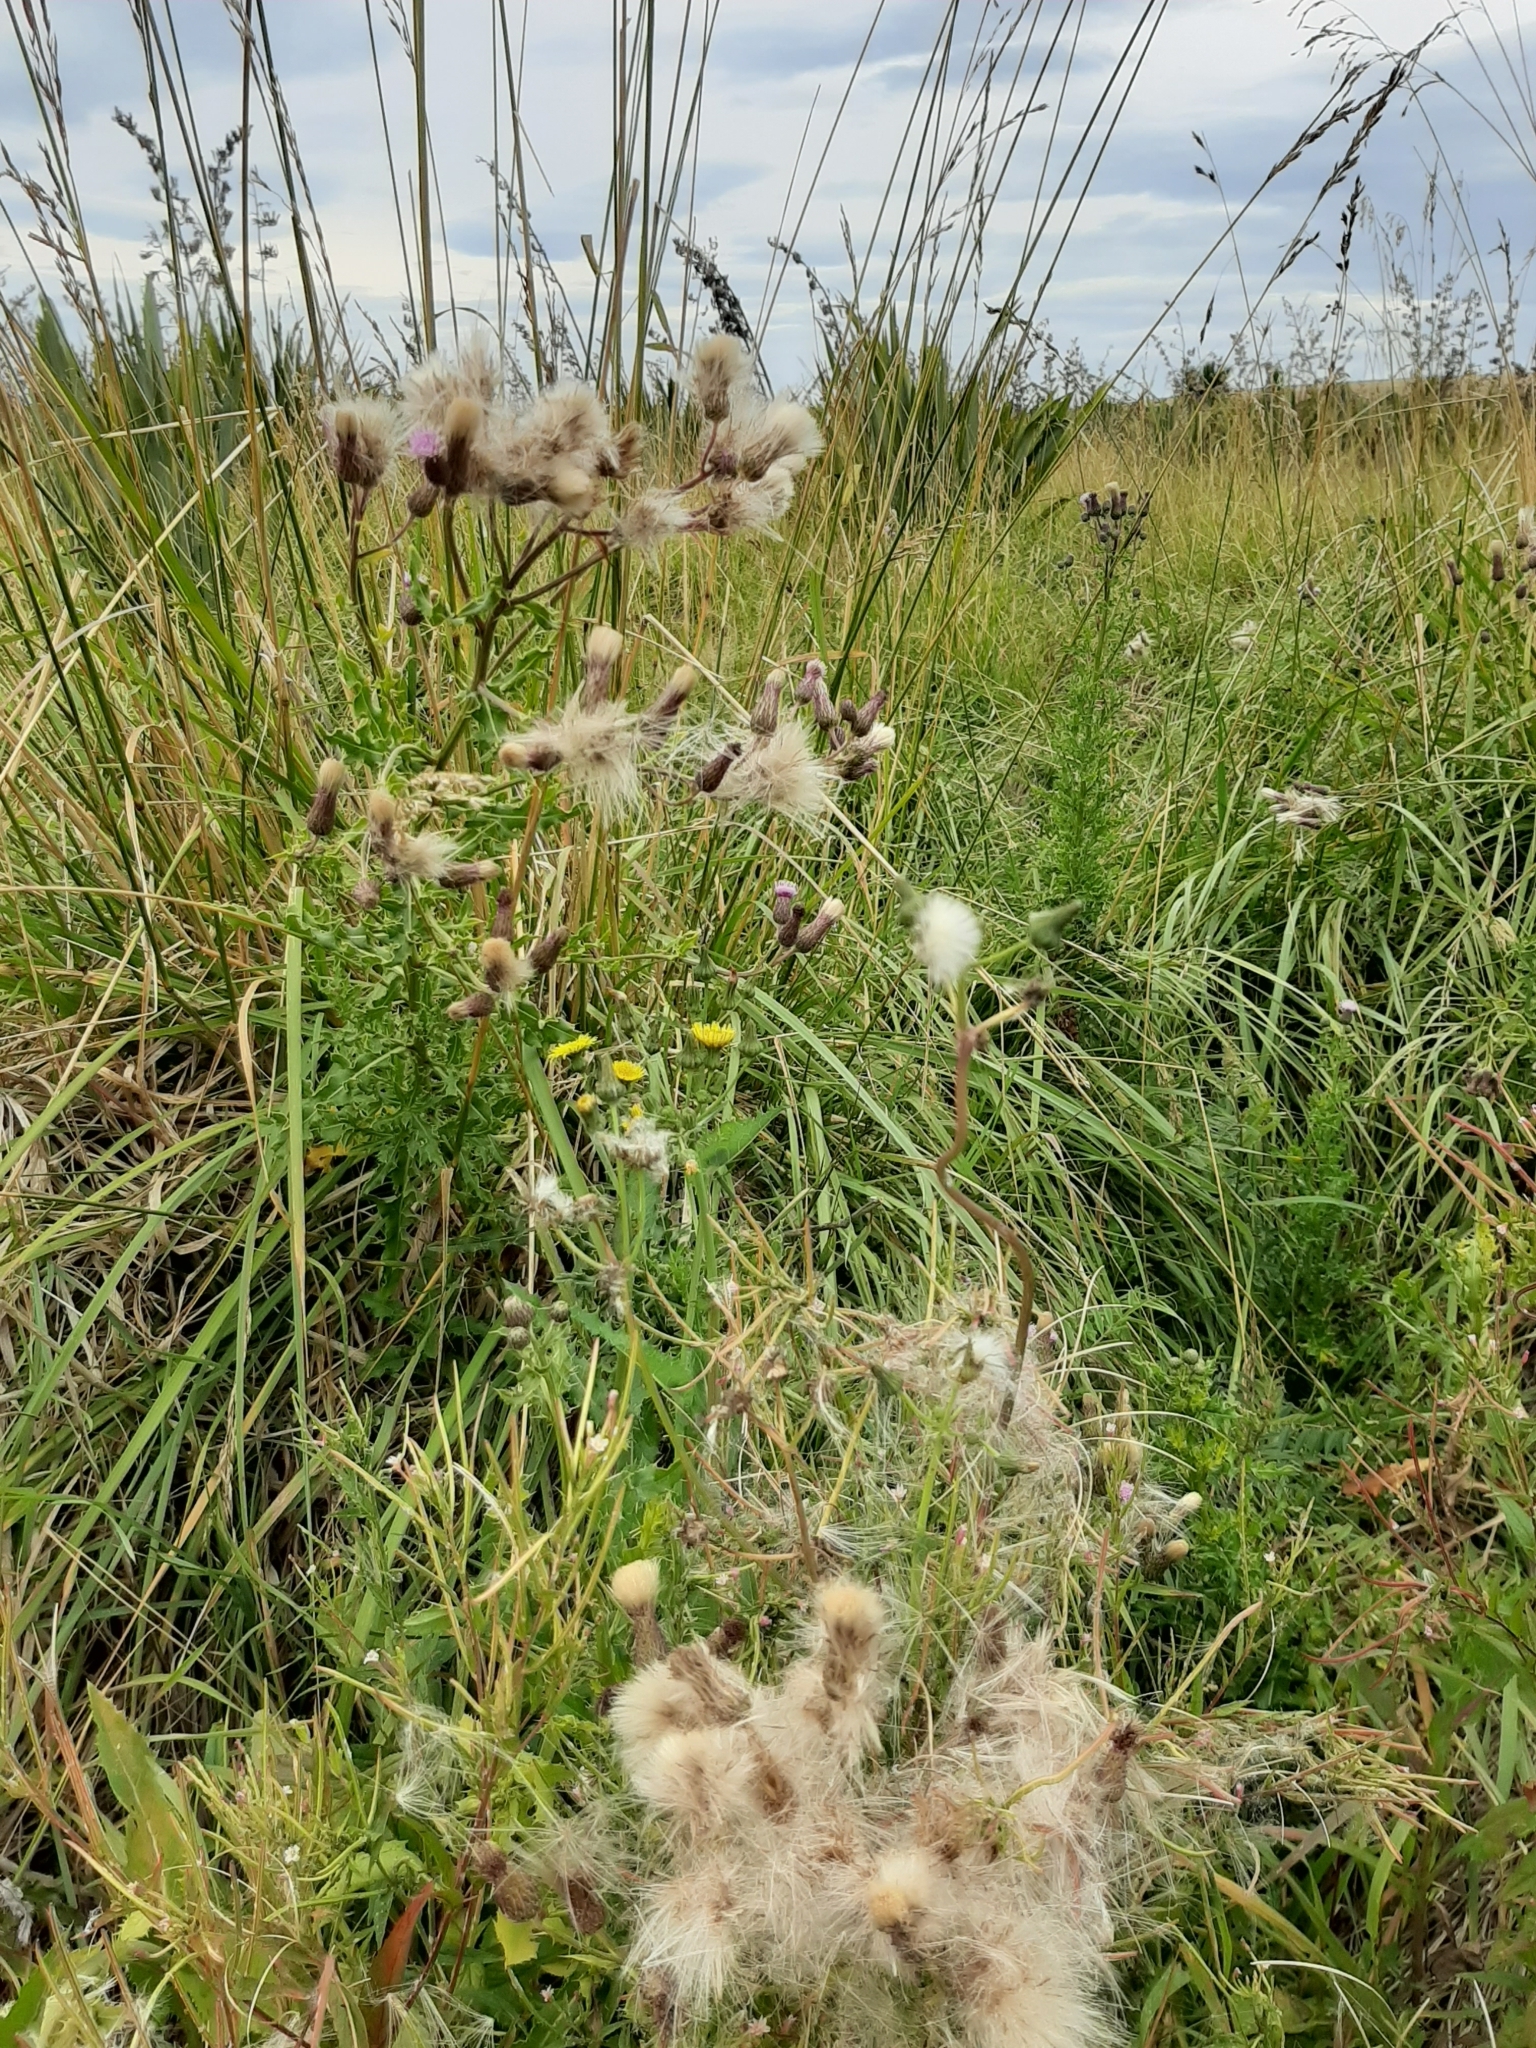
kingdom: Plantae
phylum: Tracheophyta
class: Magnoliopsida
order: Asterales
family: Asteraceae
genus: Cirsium
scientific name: Cirsium arvense
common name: Creeping thistle
